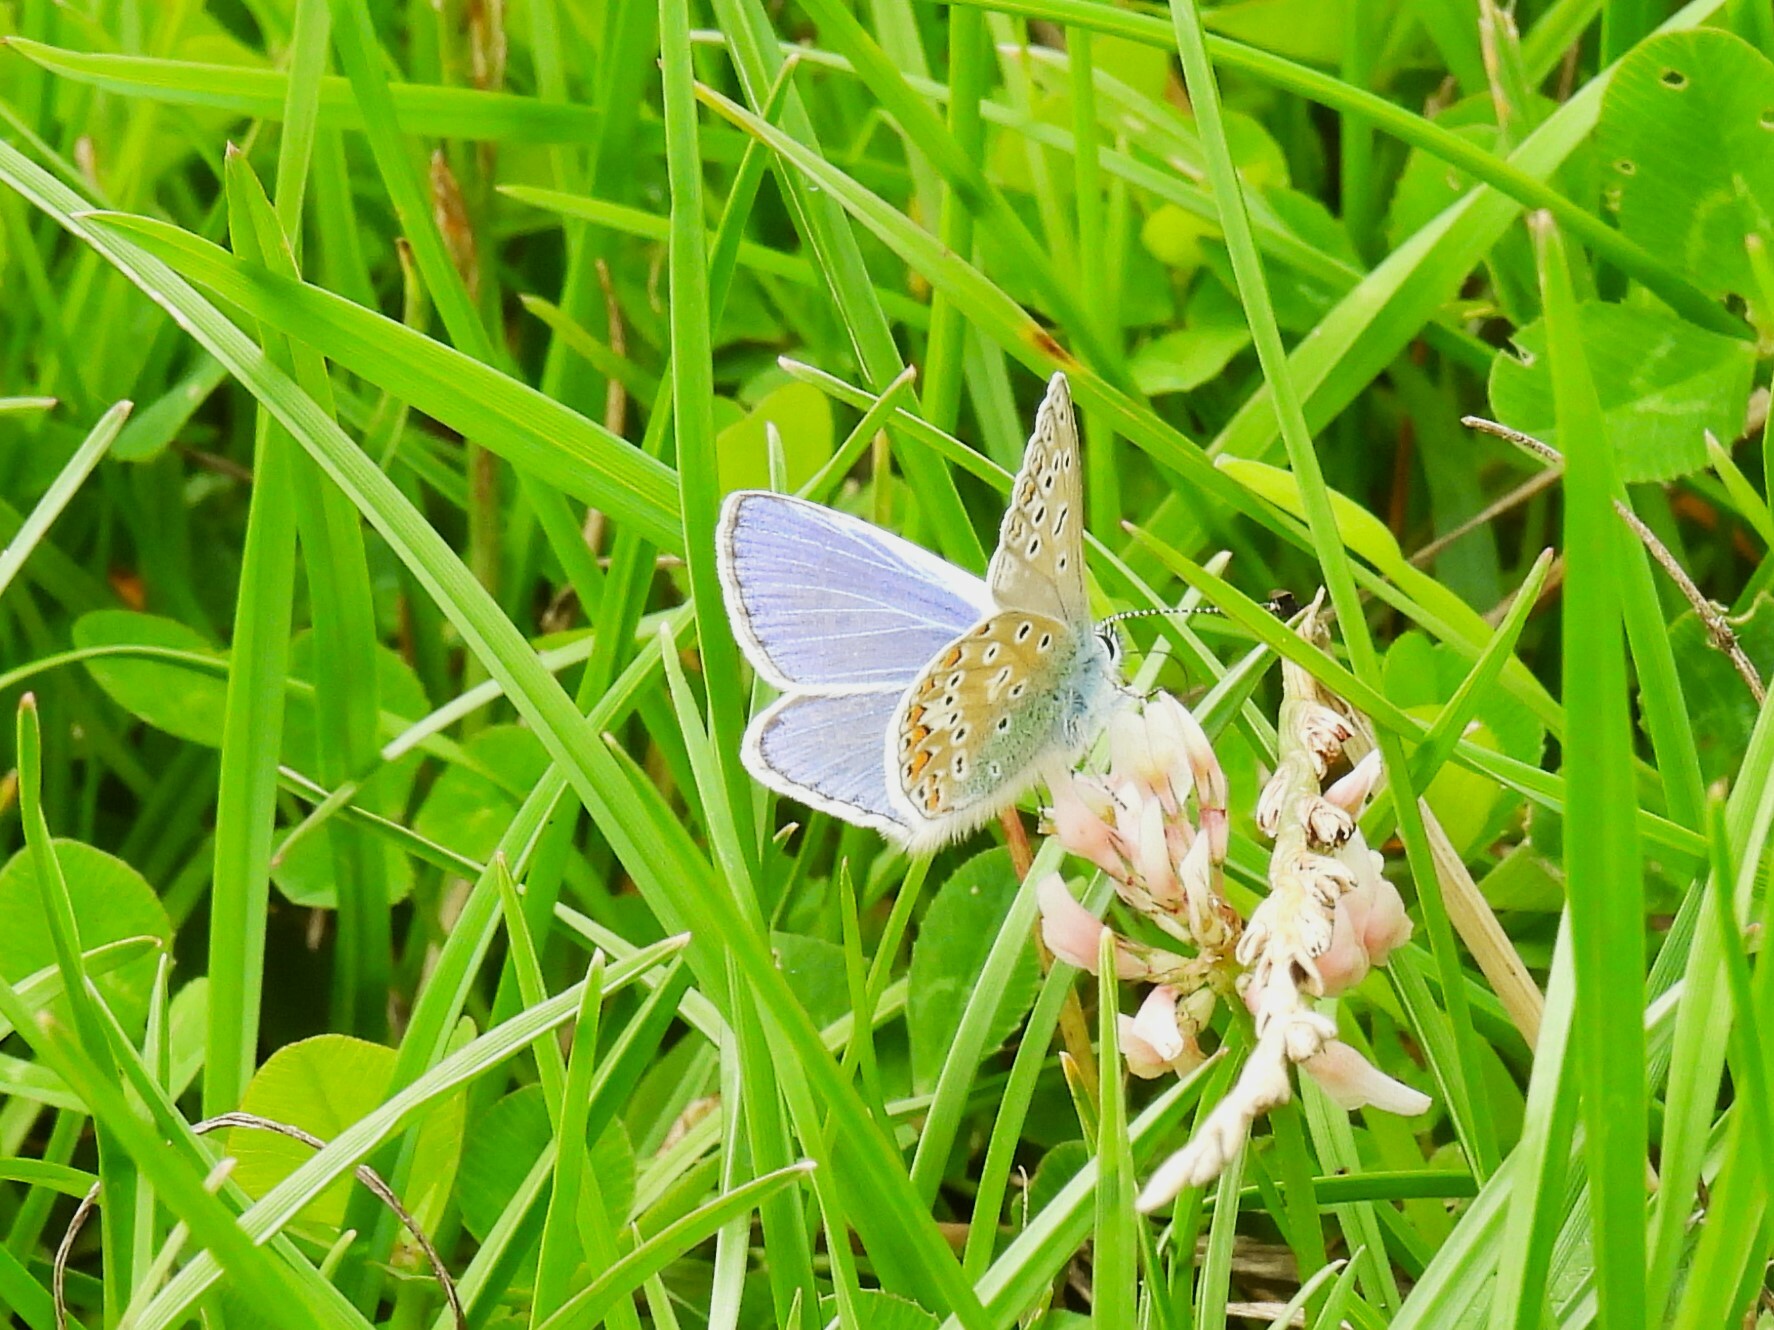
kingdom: Animalia
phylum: Arthropoda
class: Insecta
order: Lepidoptera
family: Lycaenidae
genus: Polyommatus
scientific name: Polyommatus icarus
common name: Common blue
